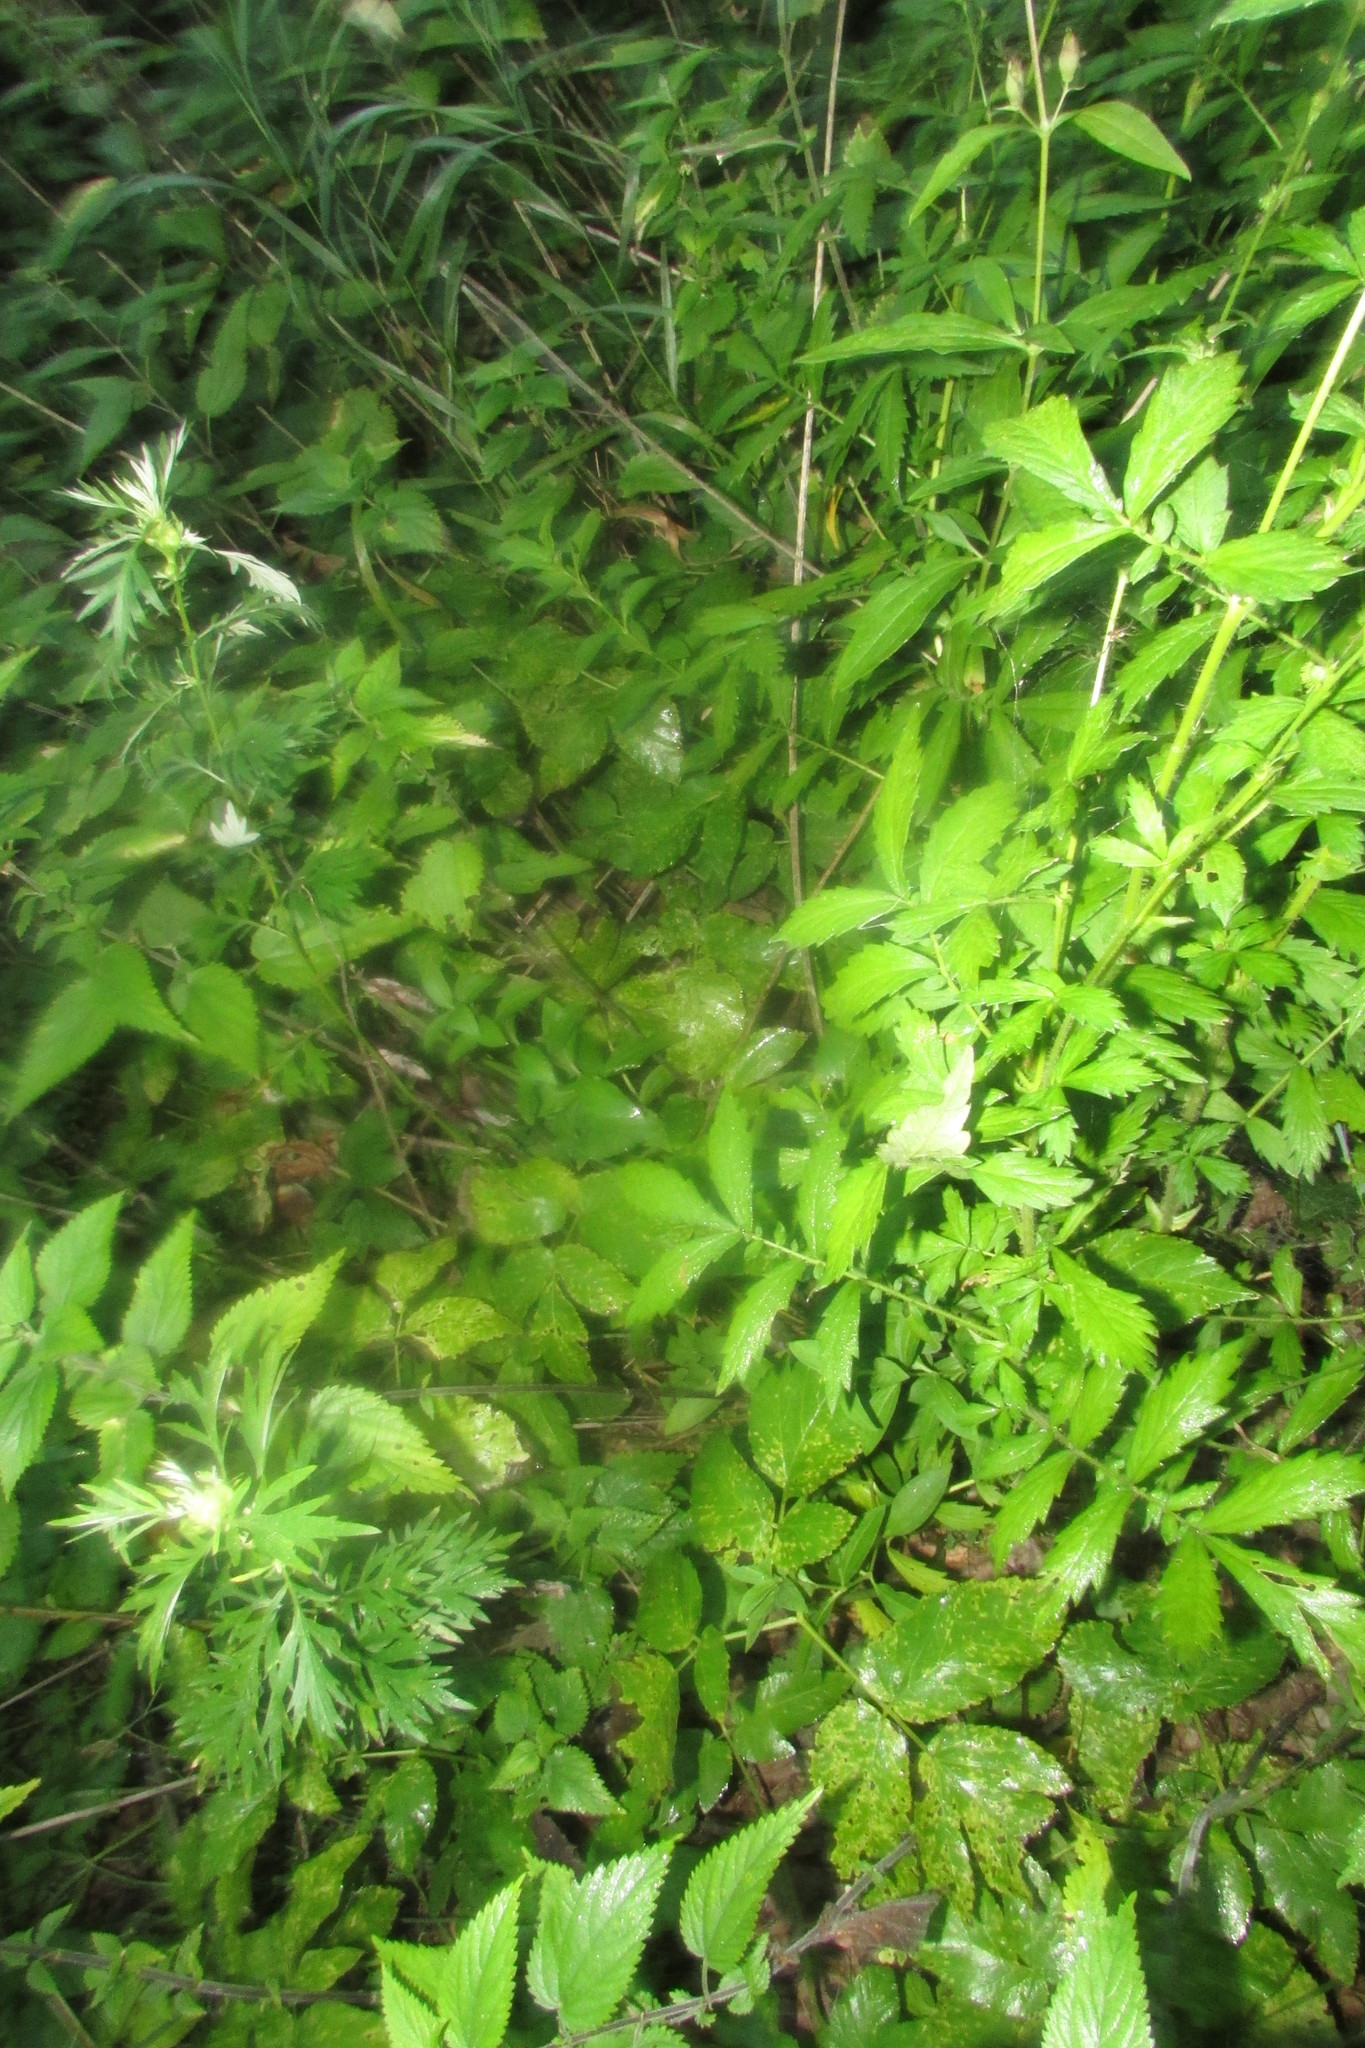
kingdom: Plantae
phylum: Tracheophyta
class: Magnoliopsida
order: Rosales
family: Rosaceae
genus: Agrimonia
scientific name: Agrimonia pilosa
